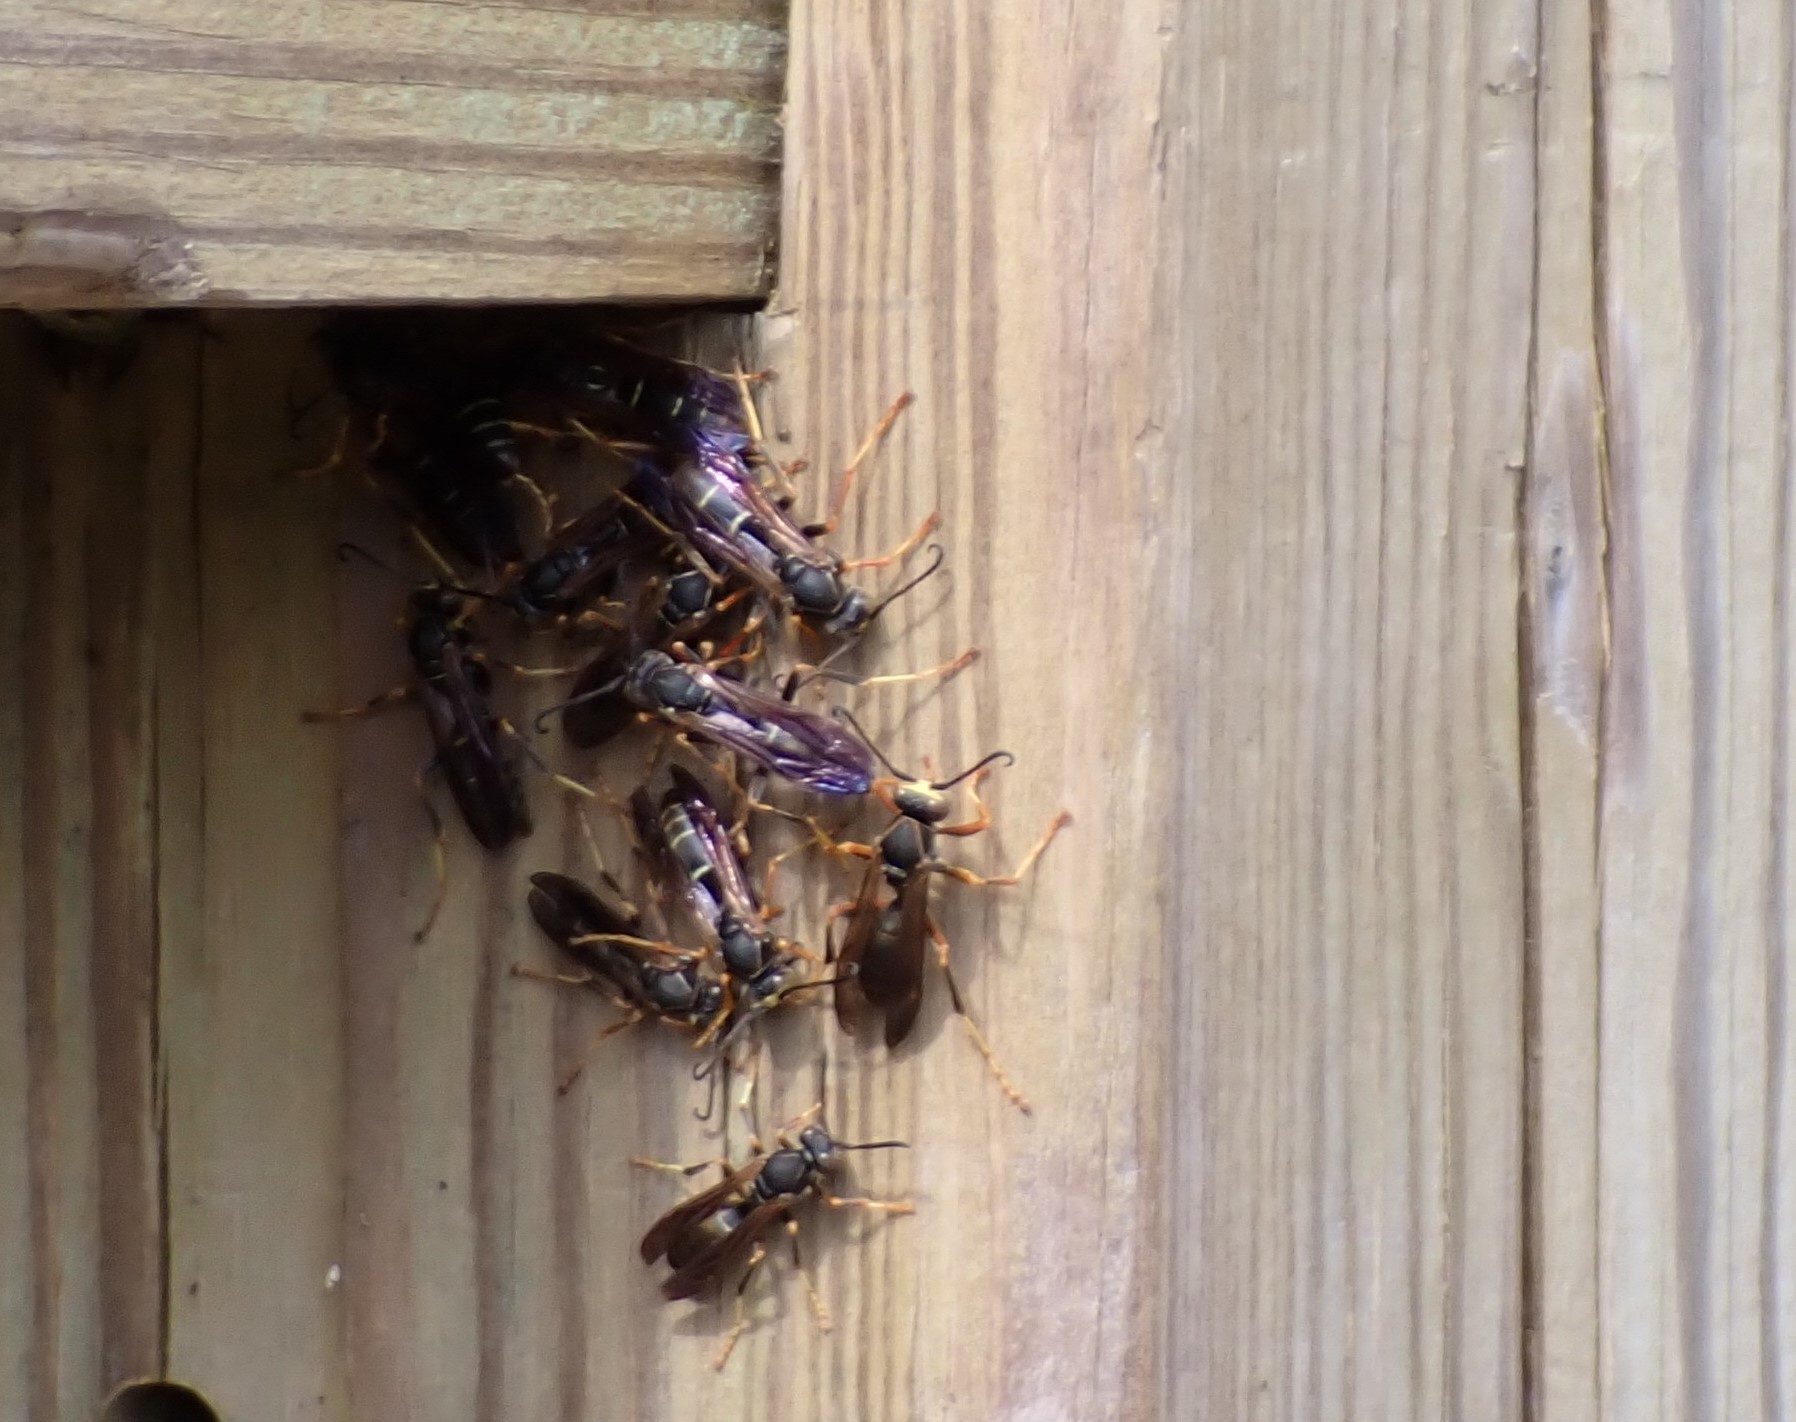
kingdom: Animalia
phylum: Arthropoda
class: Insecta
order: Hymenoptera
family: Eumenidae
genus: Polistes
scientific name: Polistes fuscatus
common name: Dark paper wasp
